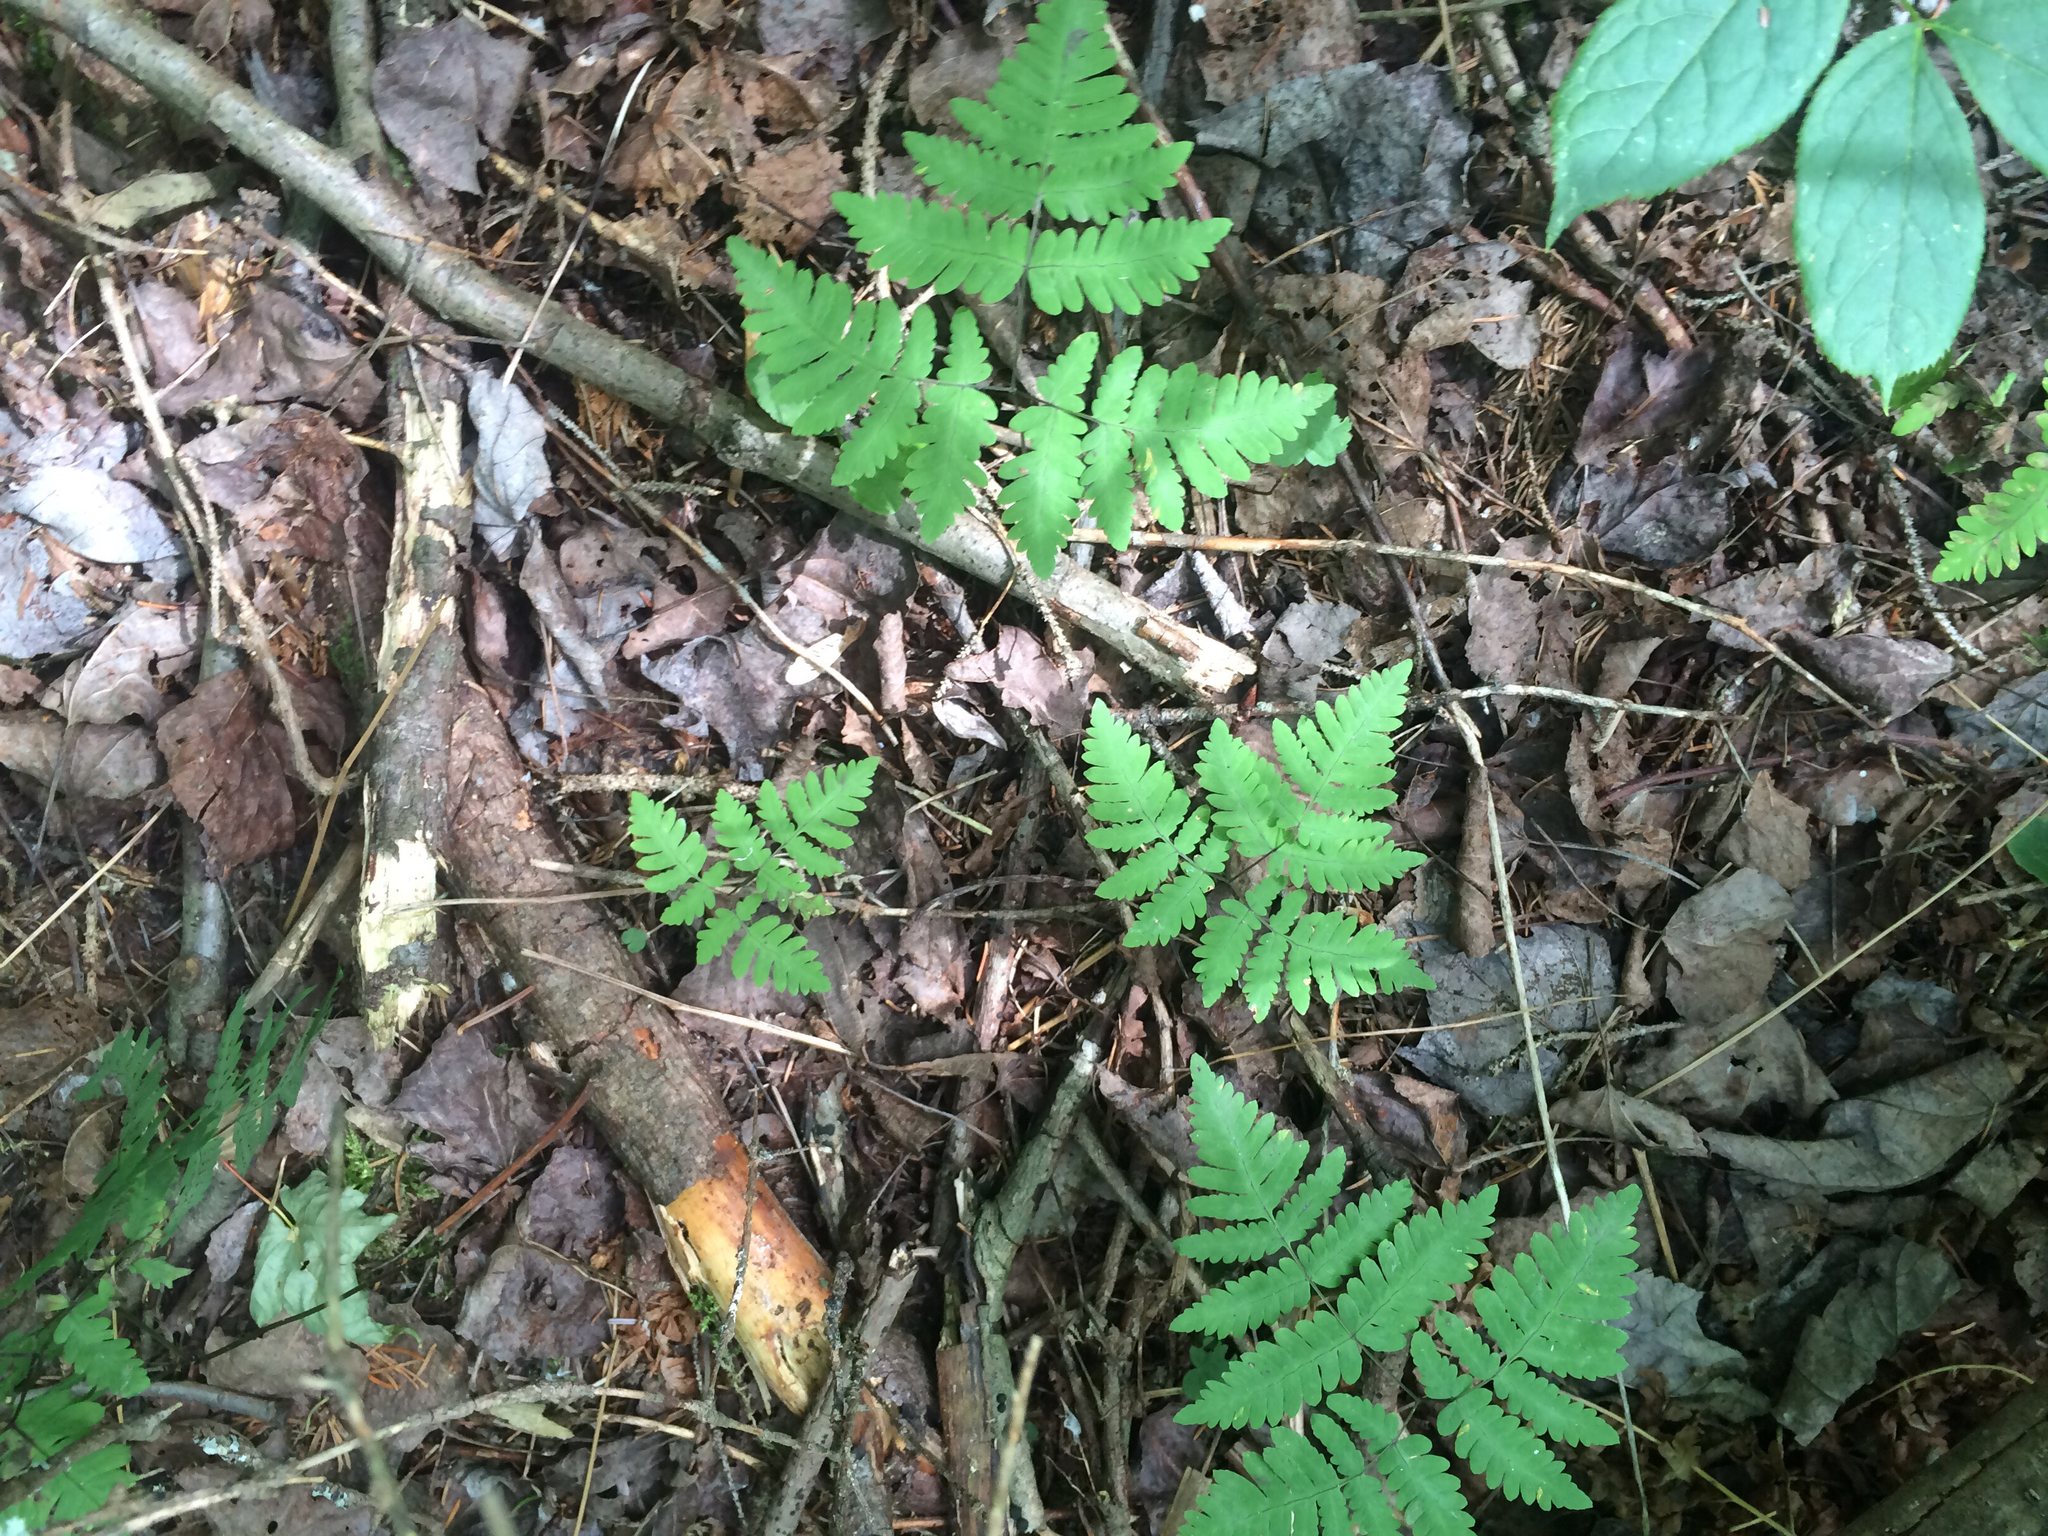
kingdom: Plantae
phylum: Tracheophyta
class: Polypodiopsida
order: Polypodiales
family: Cystopteridaceae
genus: Gymnocarpium
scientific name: Gymnocarpium dryopteris
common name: Oak fern
